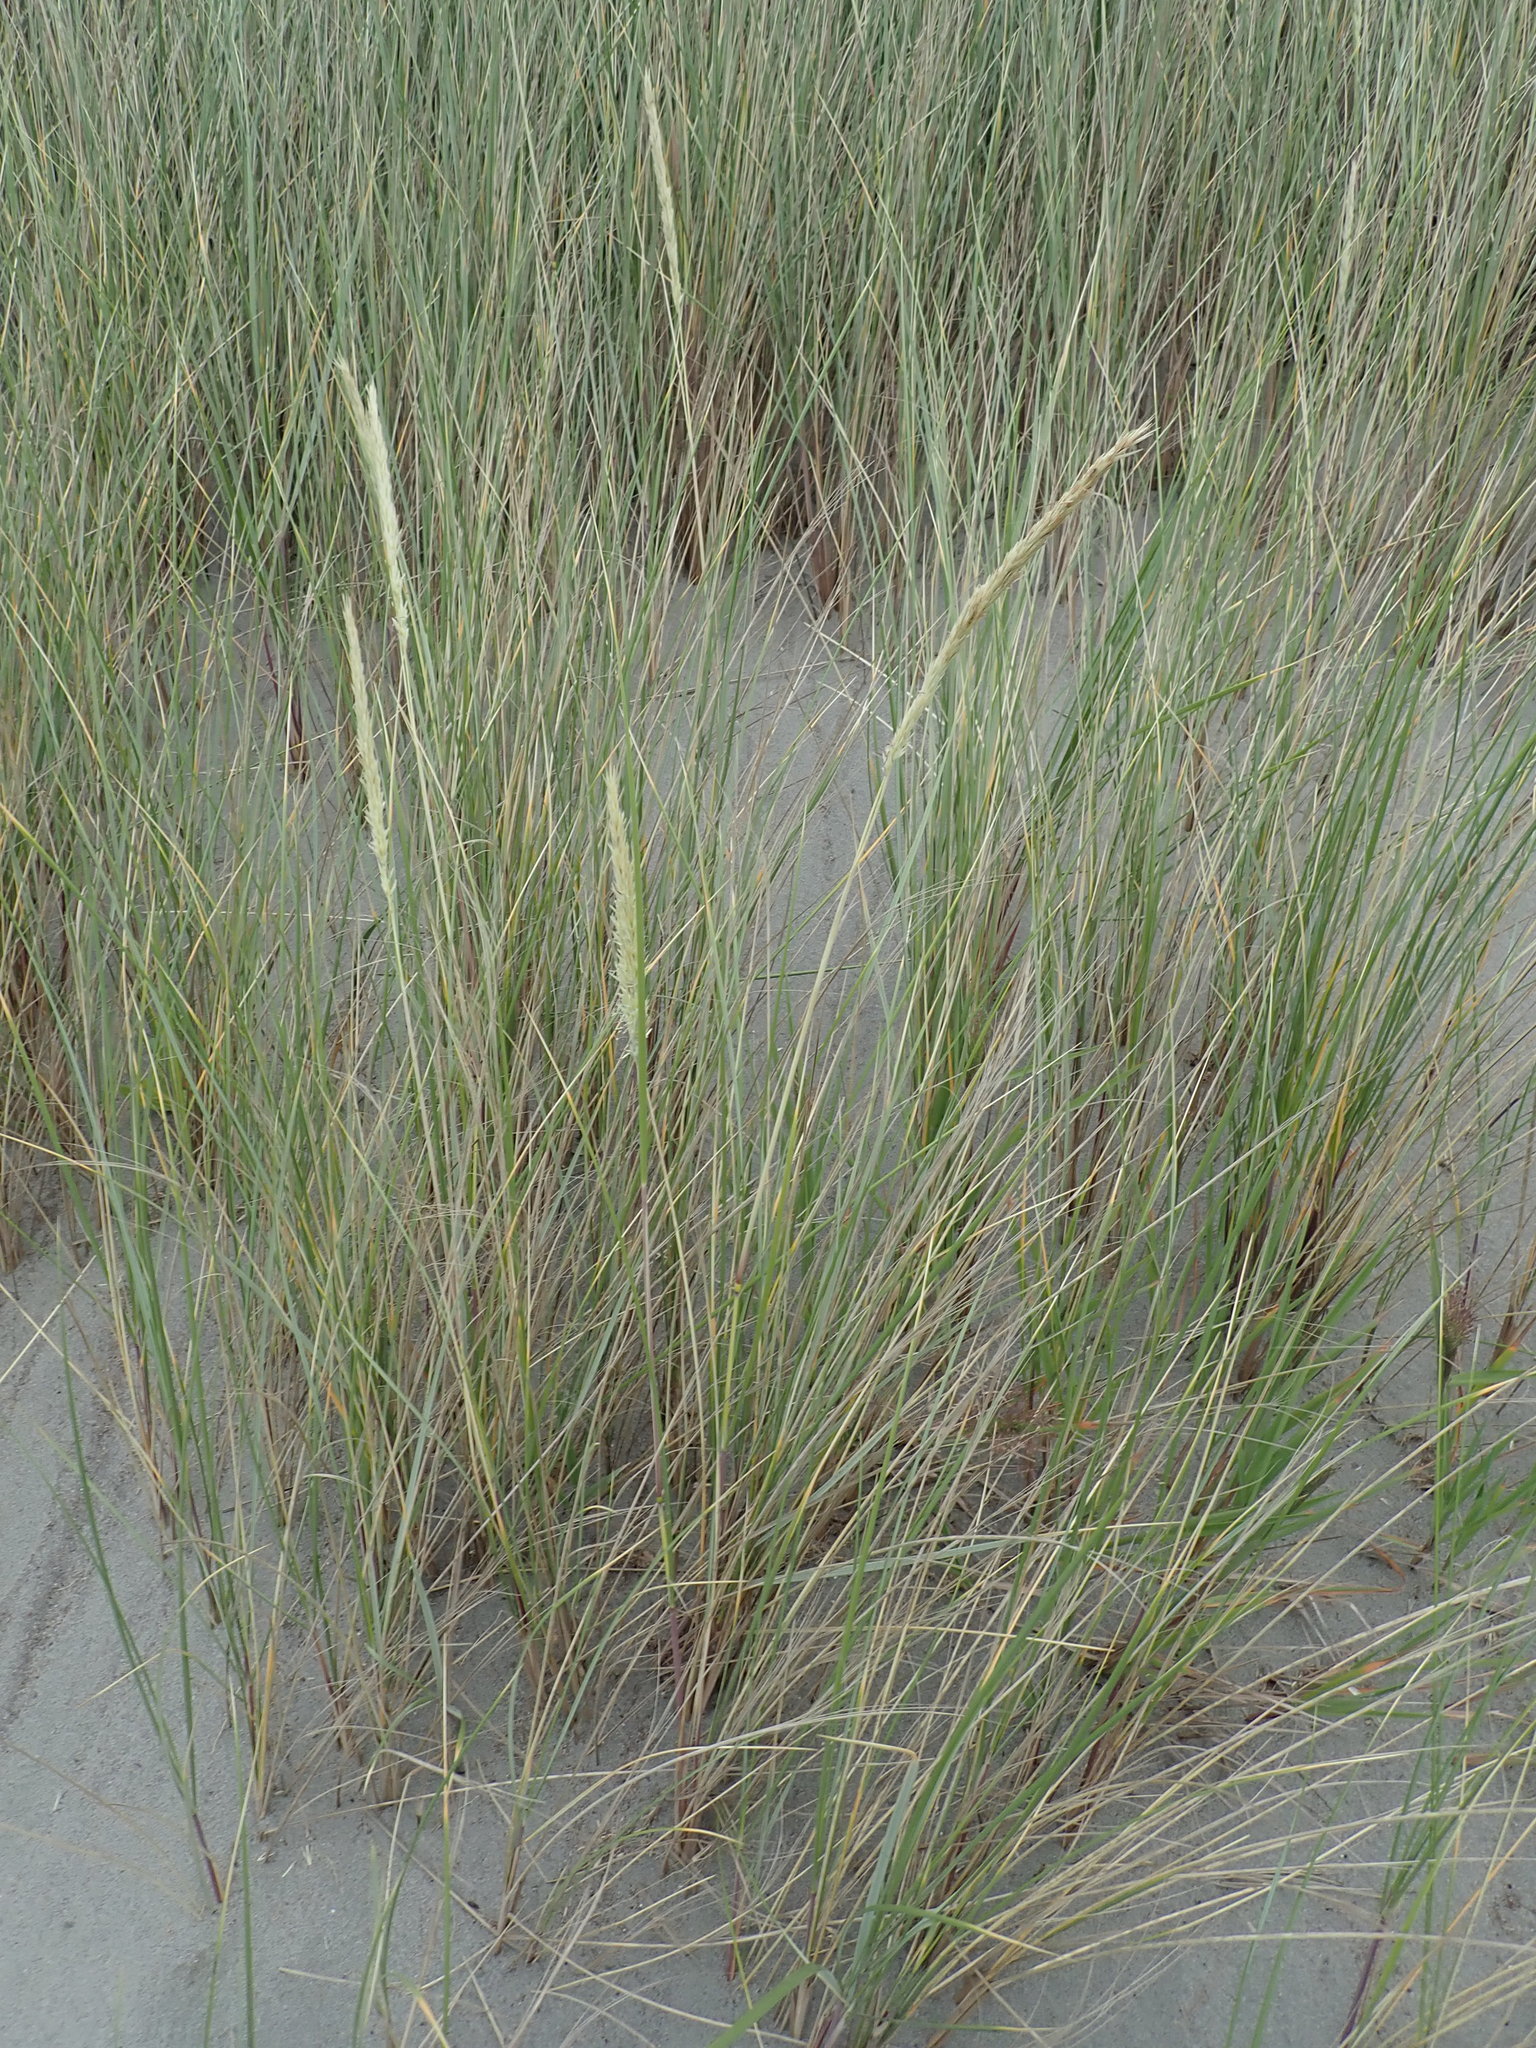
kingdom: Plantae
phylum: Tracheophyta
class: Liliopsida
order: Poales
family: Poaceae
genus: Calamagrostis
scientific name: Calamagrostis arenaria
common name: European beachgrass
